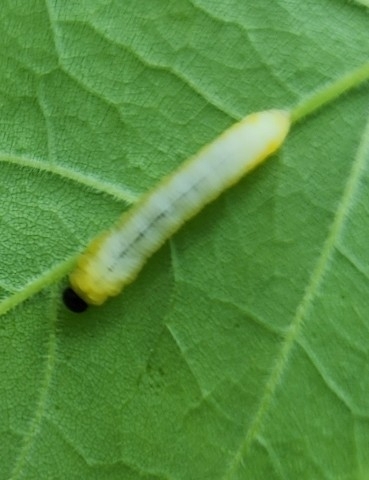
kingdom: Animalia
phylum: Arthropoda
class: Insecta
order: Hymenoptera
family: Tenthredinidae
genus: Tethida
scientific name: Tethida barda
